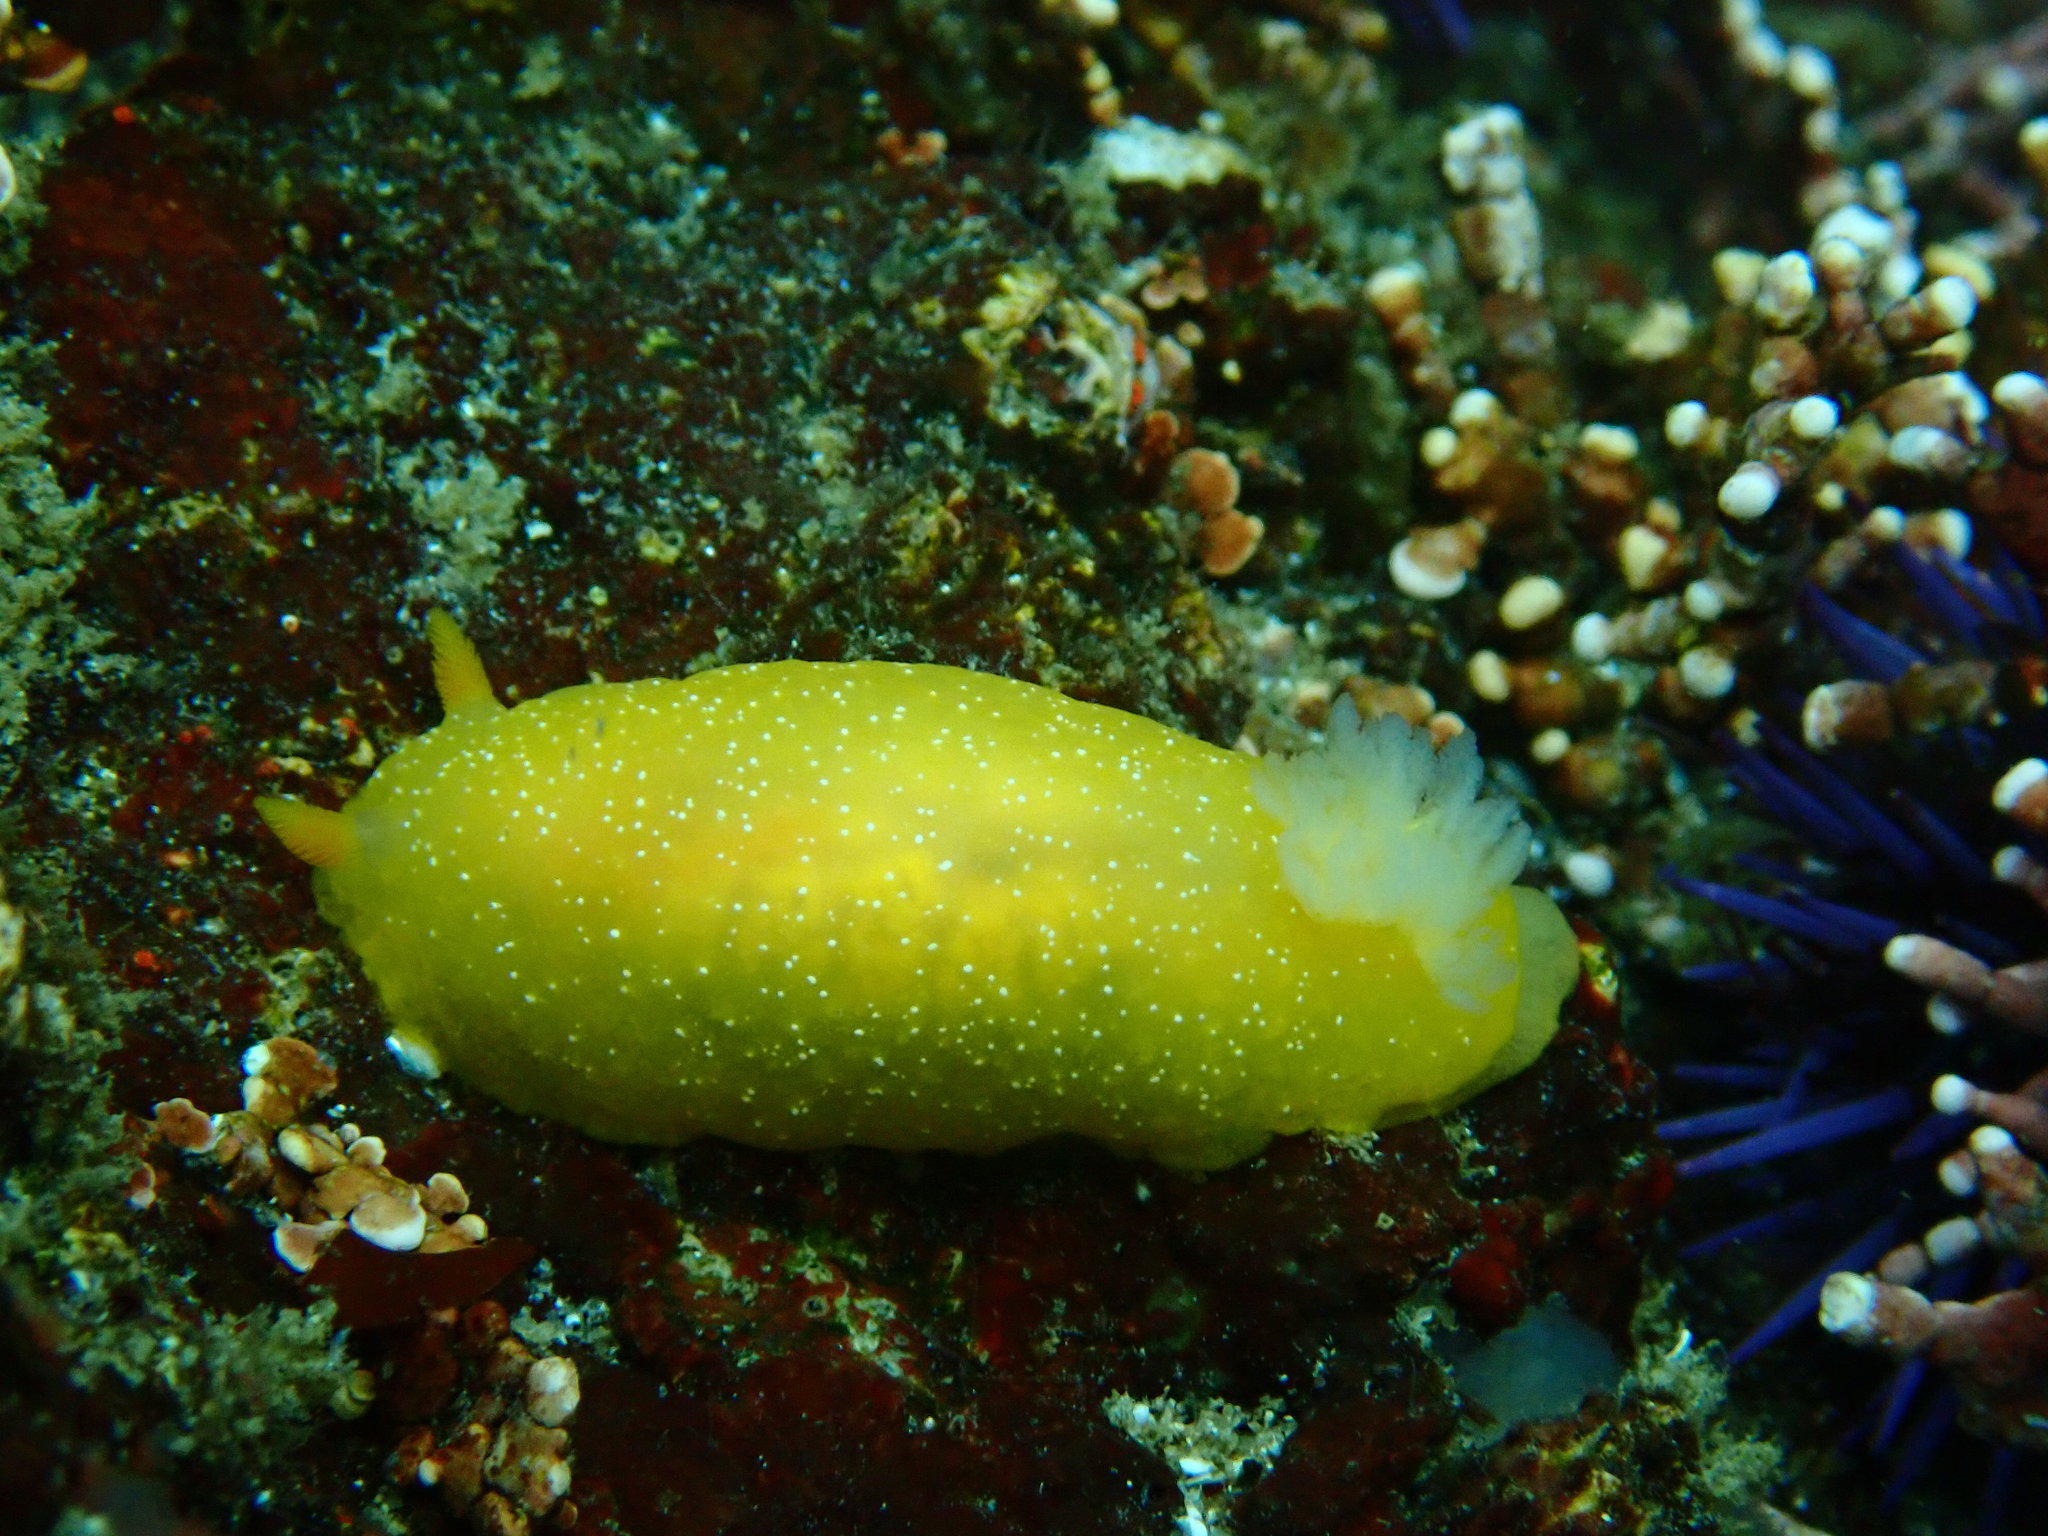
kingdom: Animalia
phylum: Mollusca
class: Gastropoda
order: Nudibranchia
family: Dendrodorididae
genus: Doriopsilla
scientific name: Doriopsilla albopunctata
